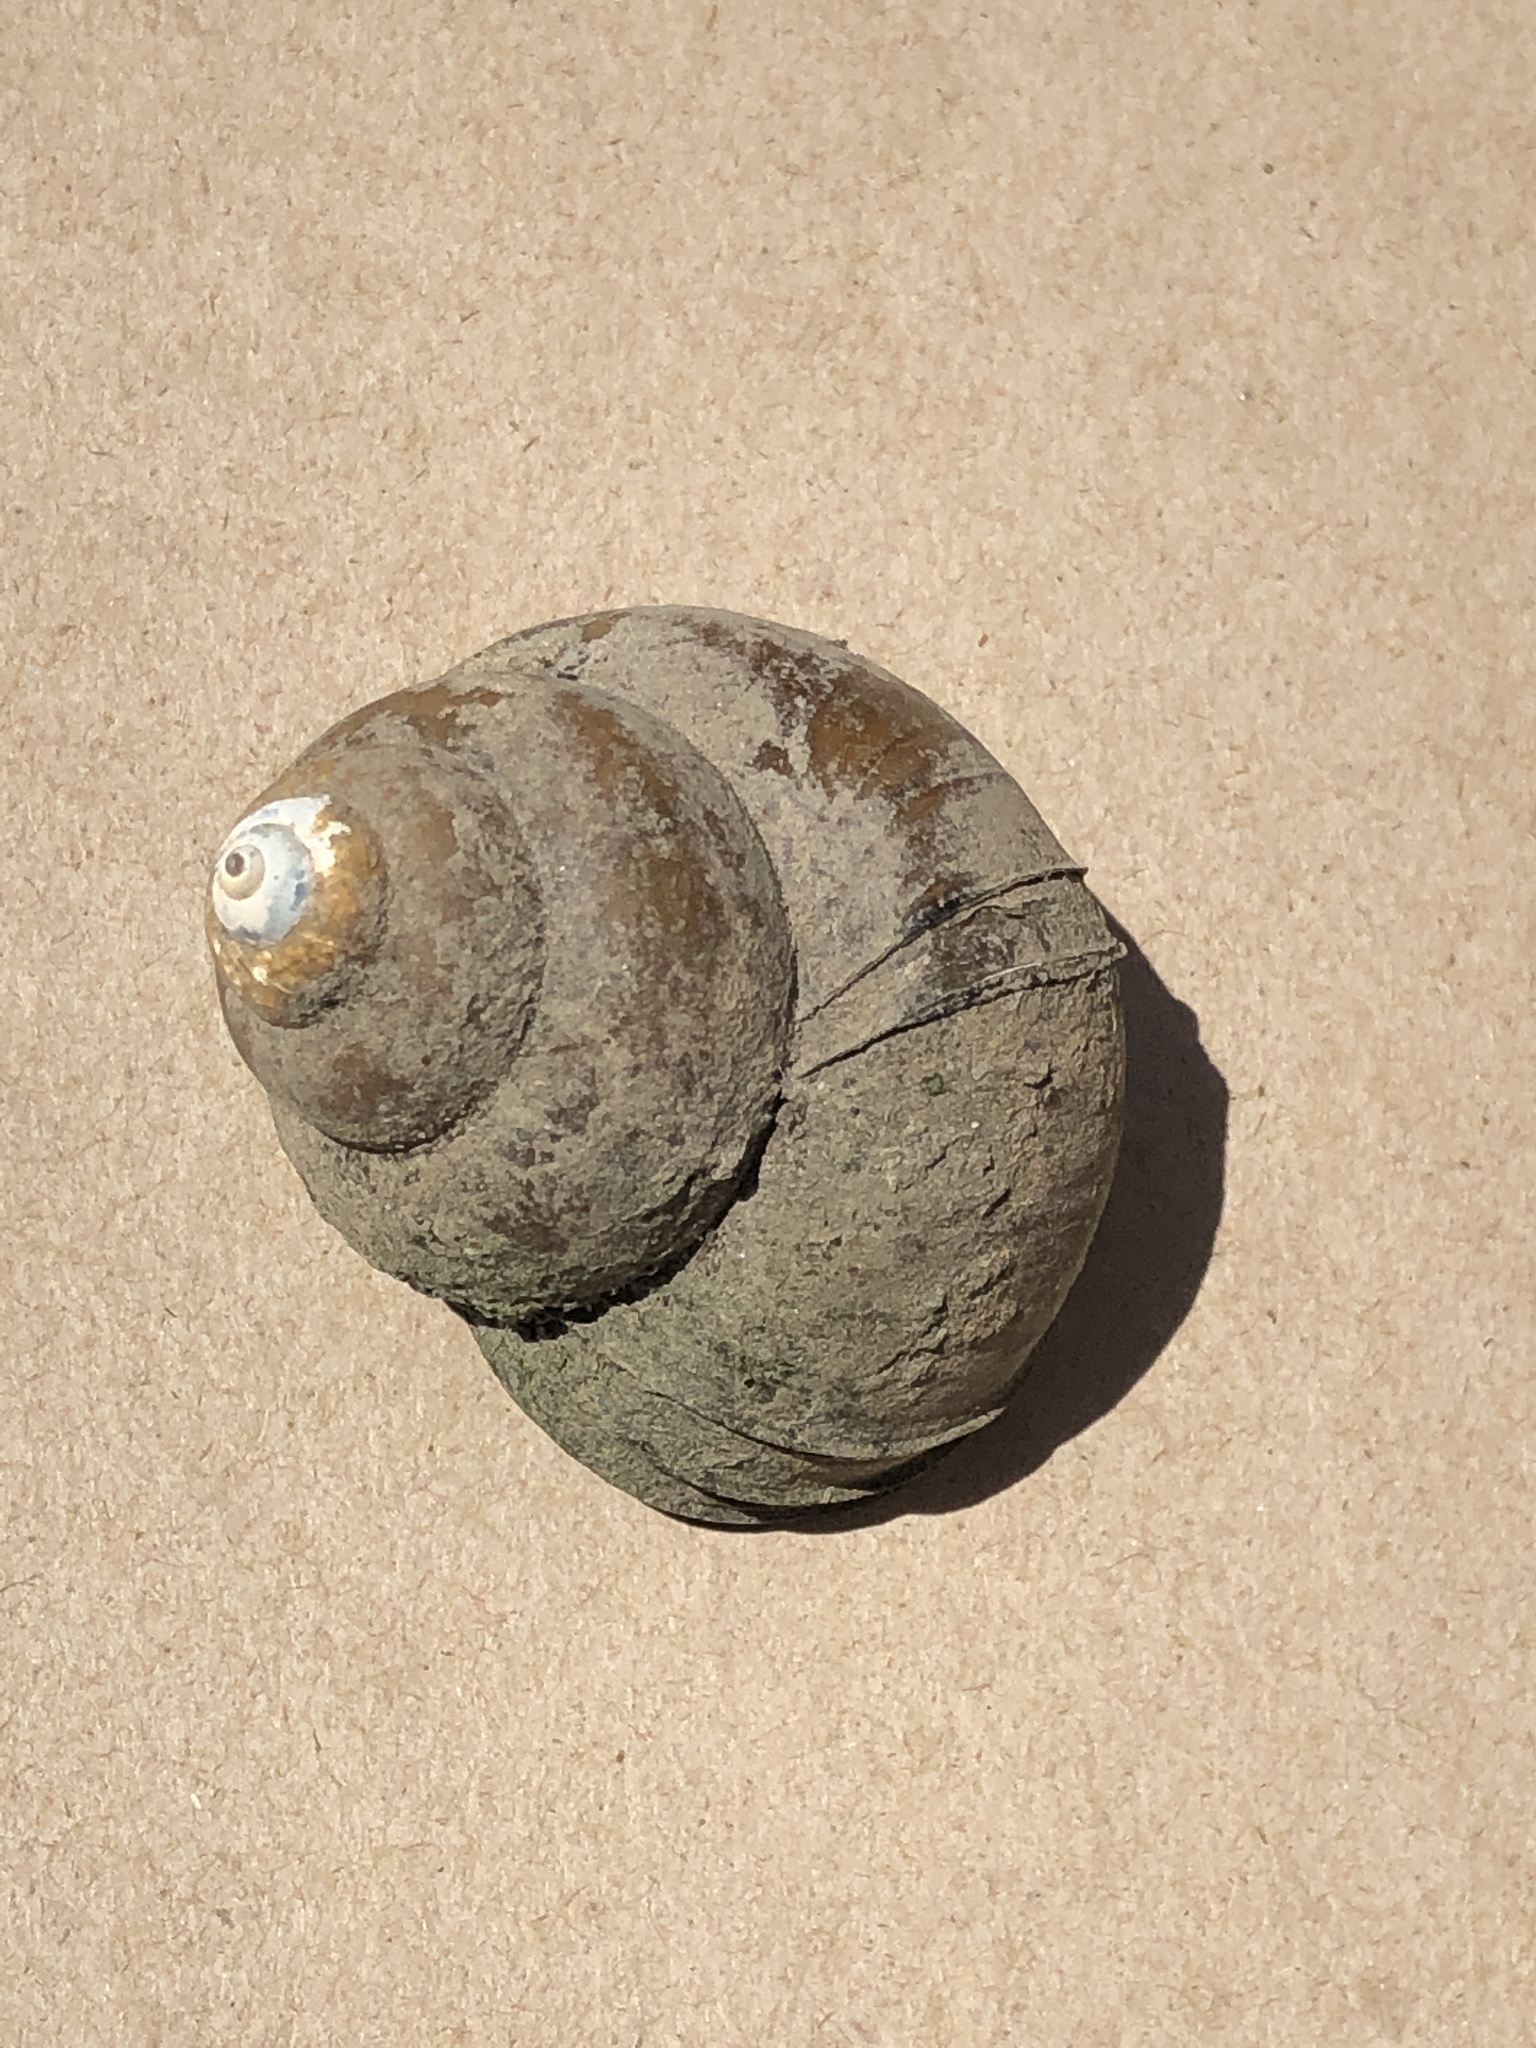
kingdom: Animalia
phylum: Mollusca
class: Gastropoda
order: Architaenioglossa
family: Viviparidae
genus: Cipangopaludina
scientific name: Cipangopaludina chinensis
